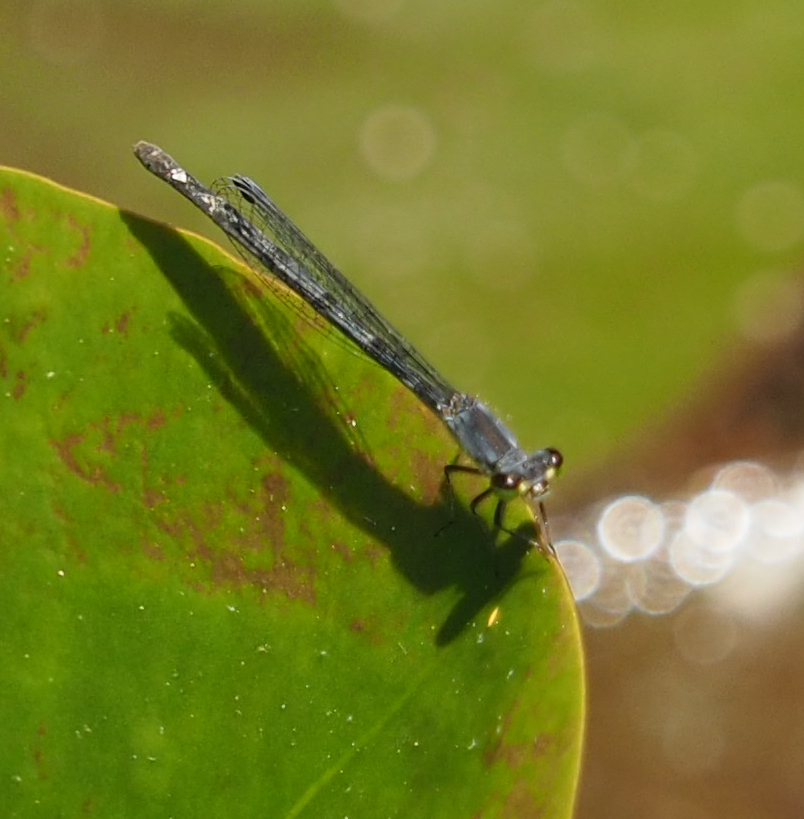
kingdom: Animalia
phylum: Arthropoda
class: Insecta
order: Odonata
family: Coenagrionidae
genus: Ischnura
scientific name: Ischnura posita
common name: Fragile forktail
